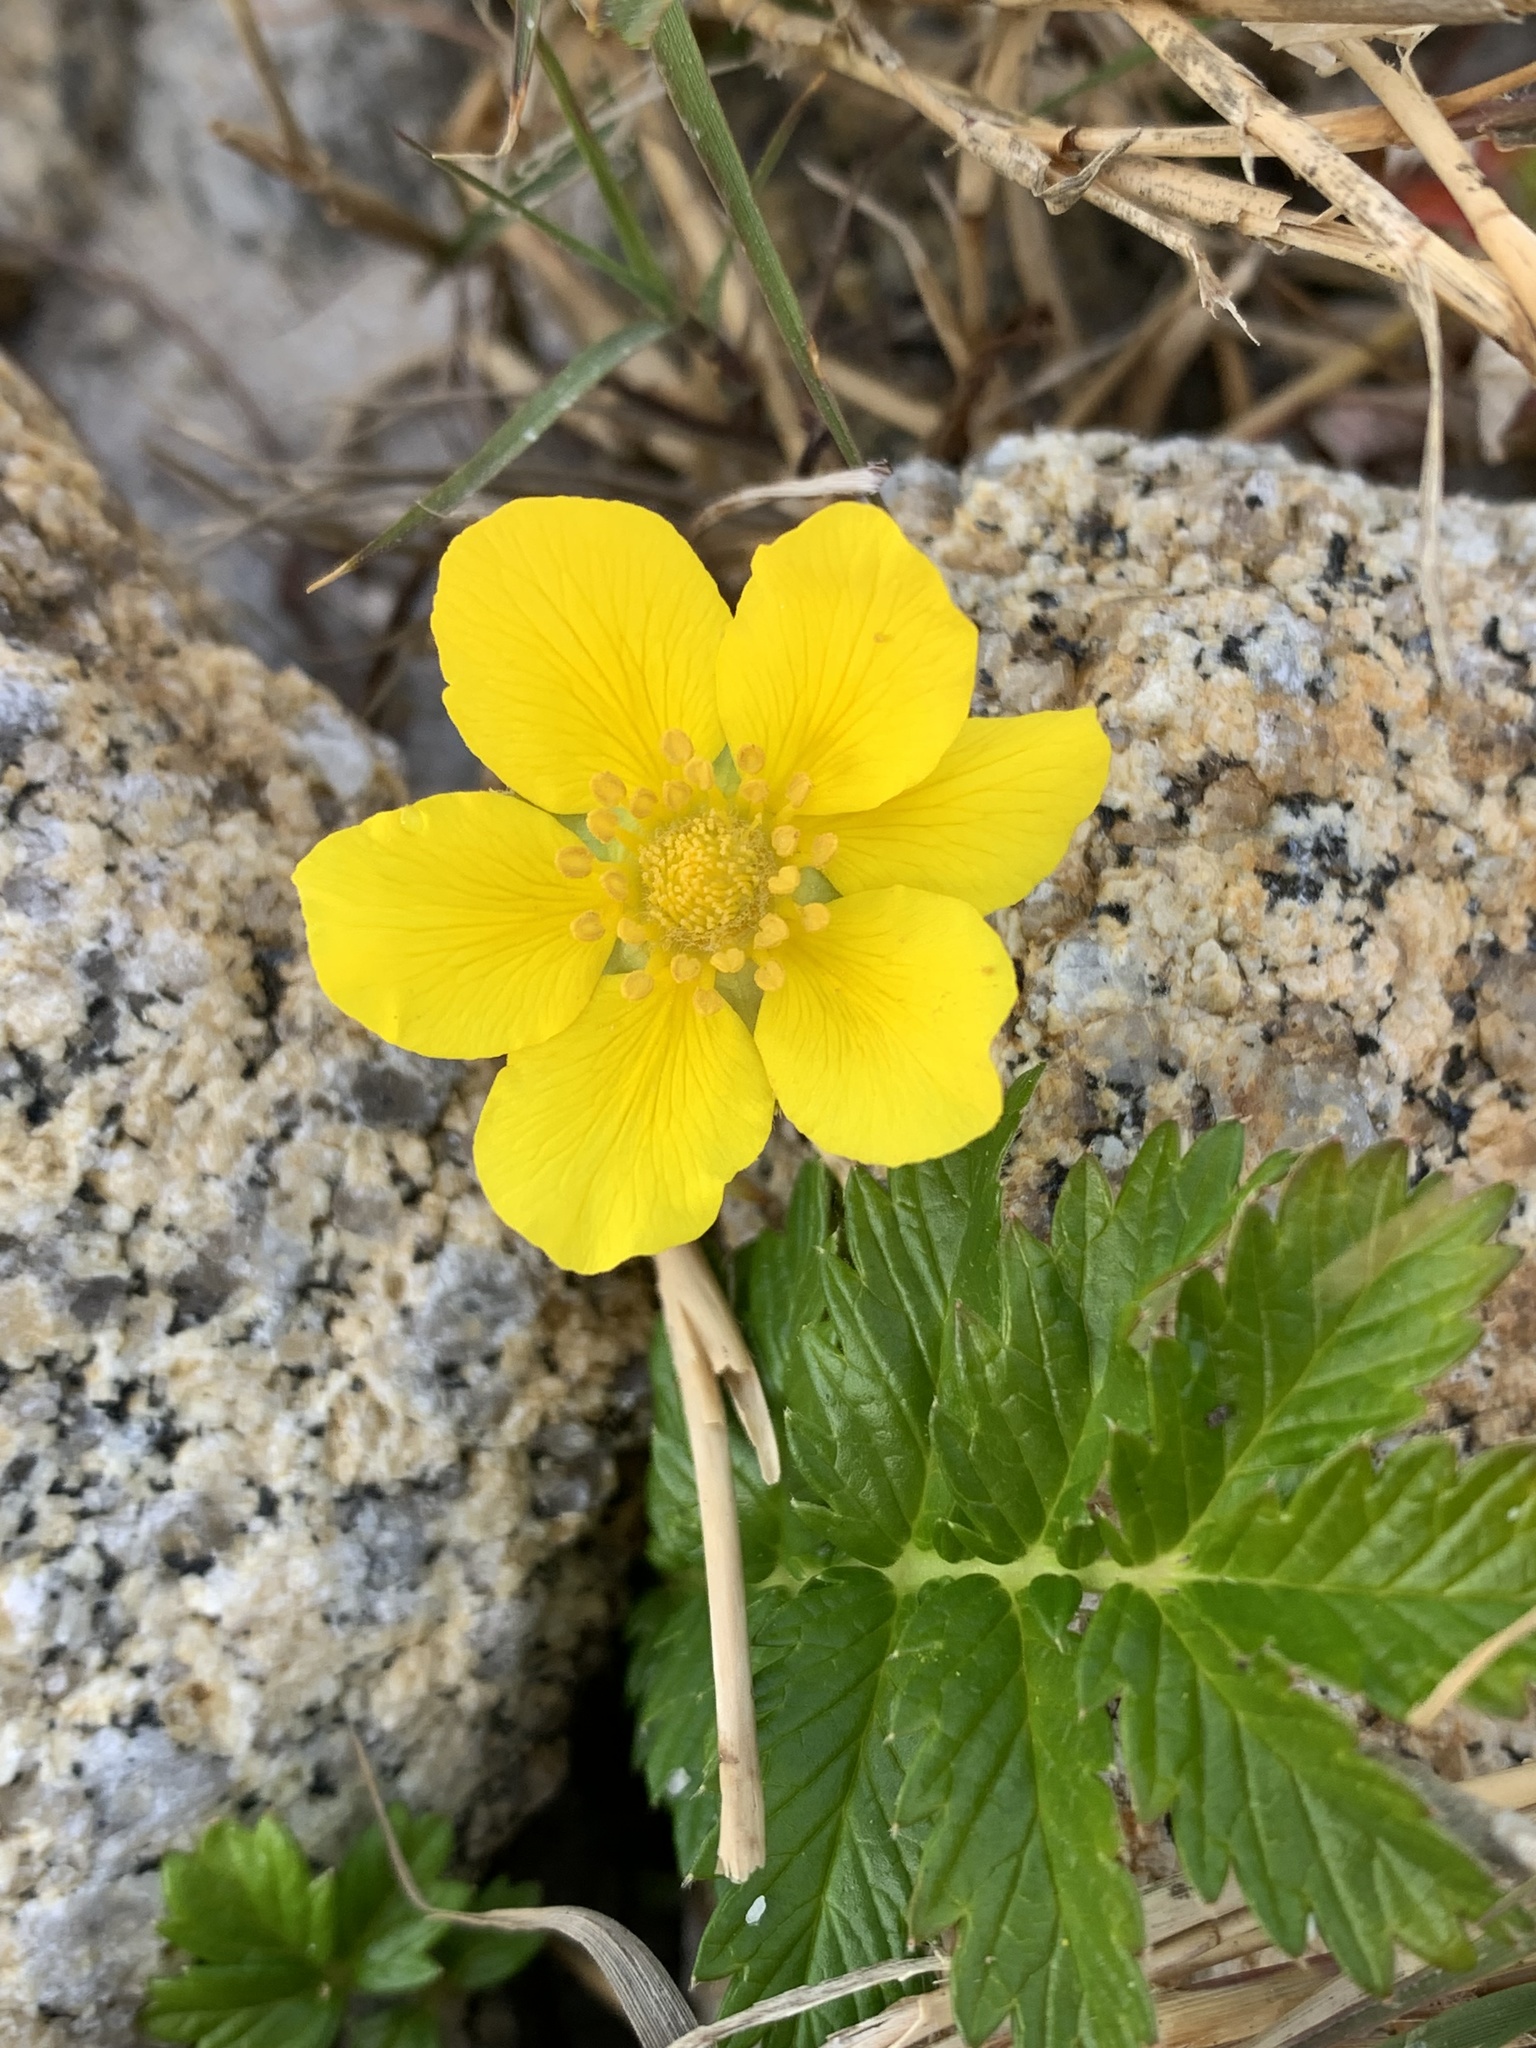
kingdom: Plantae
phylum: Tracheophyta
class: Magnoliopsida
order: Rosales
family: Rosaceae
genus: Argentina
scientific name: Argentina anserina
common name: Common silverweed
